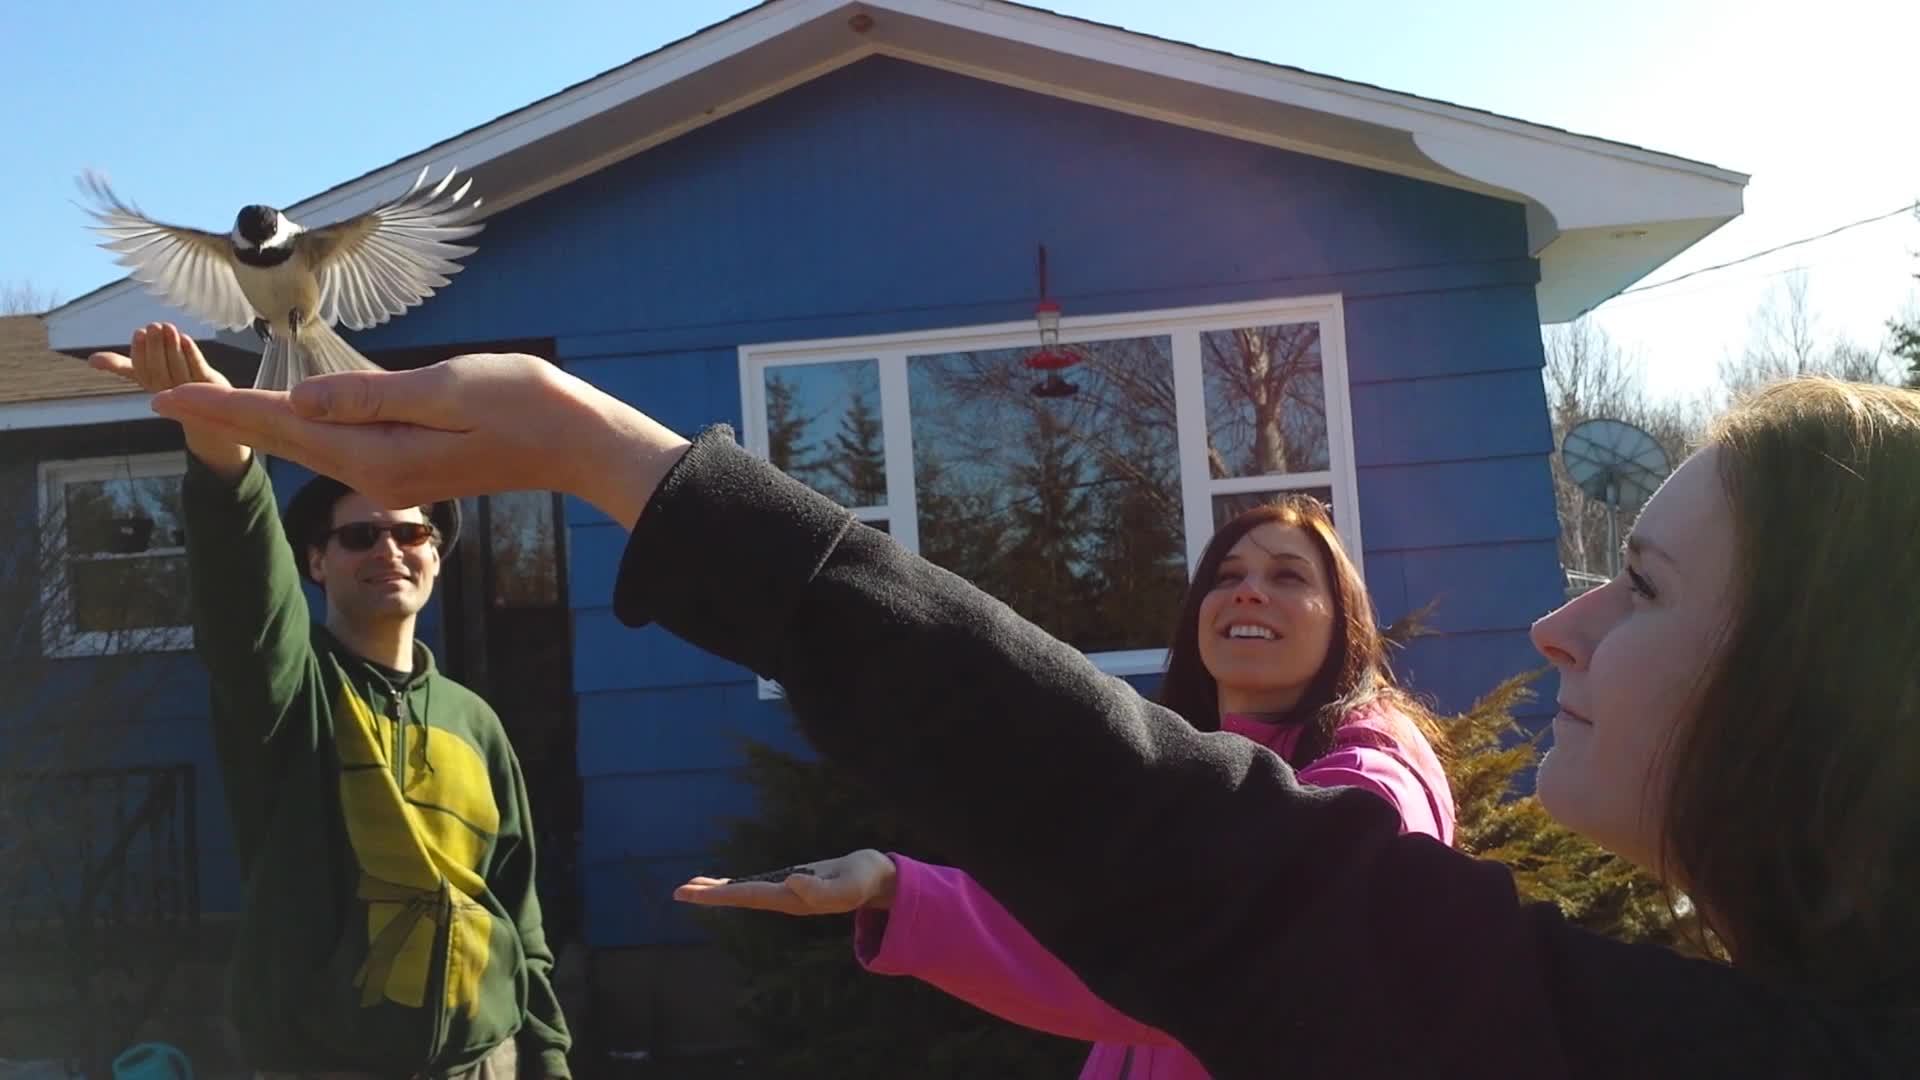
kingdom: Animalia
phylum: Chordata
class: Aves
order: Passeriformes
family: Paridae
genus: Poecile
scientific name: Poecile atricapillus
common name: Black-capped chickadee
